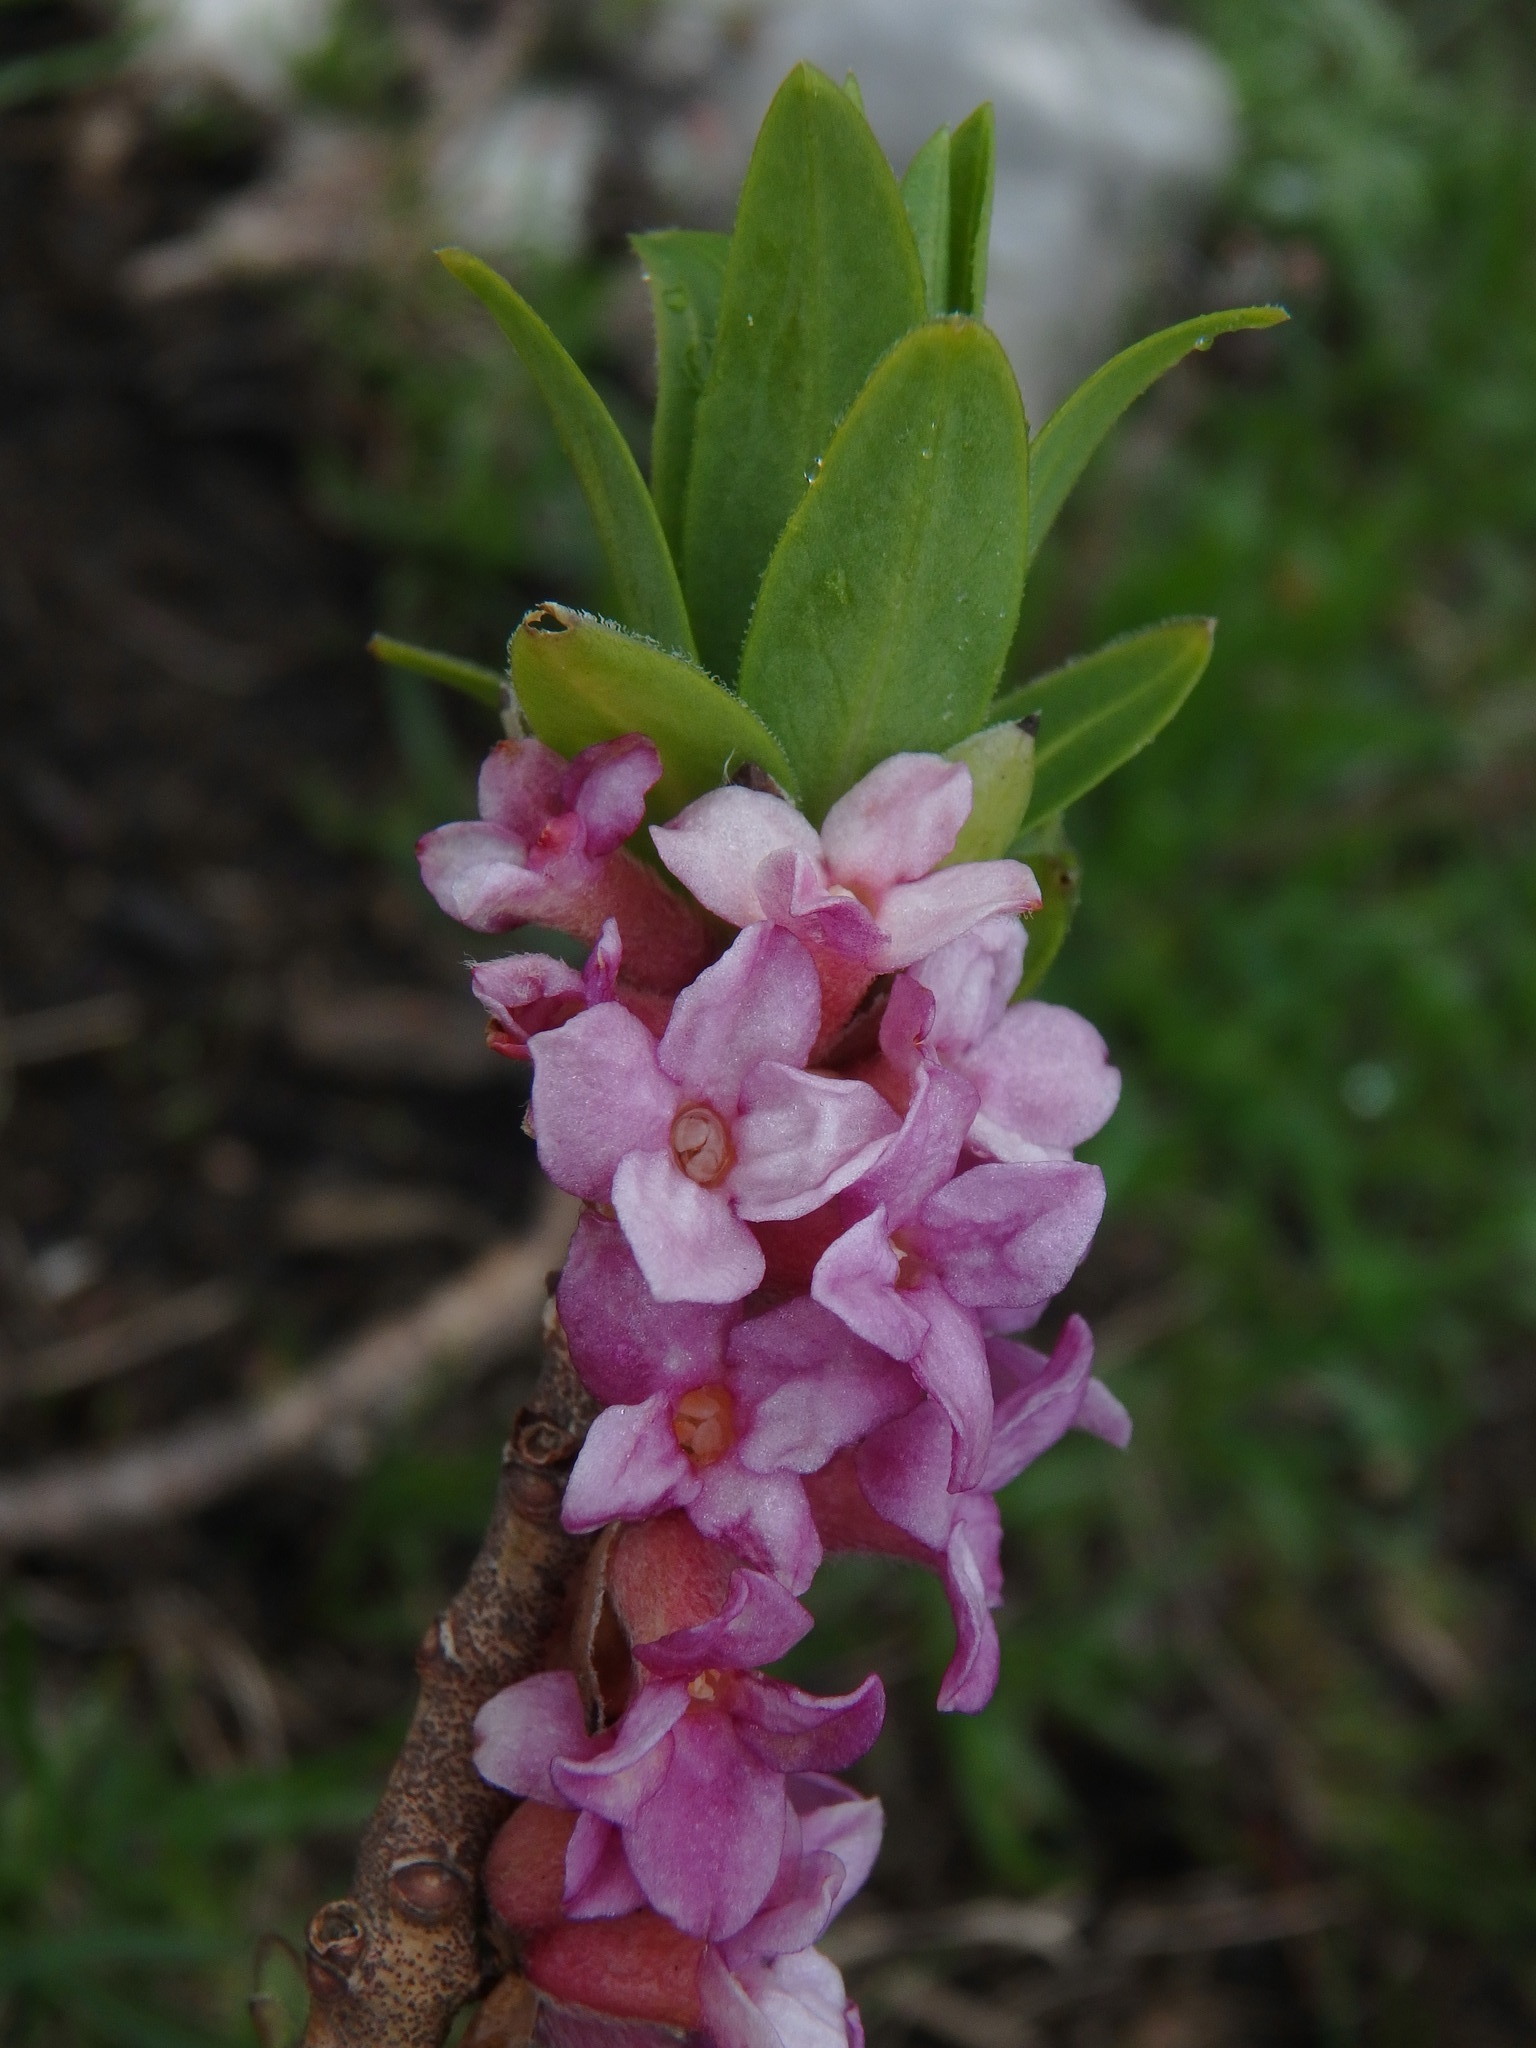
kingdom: Plantae
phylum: Tracheophyta
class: Magnoliopsida
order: Malvales
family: Thymelaeaceae
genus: Daphne
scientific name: Daphne mezereum
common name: Mezereon
